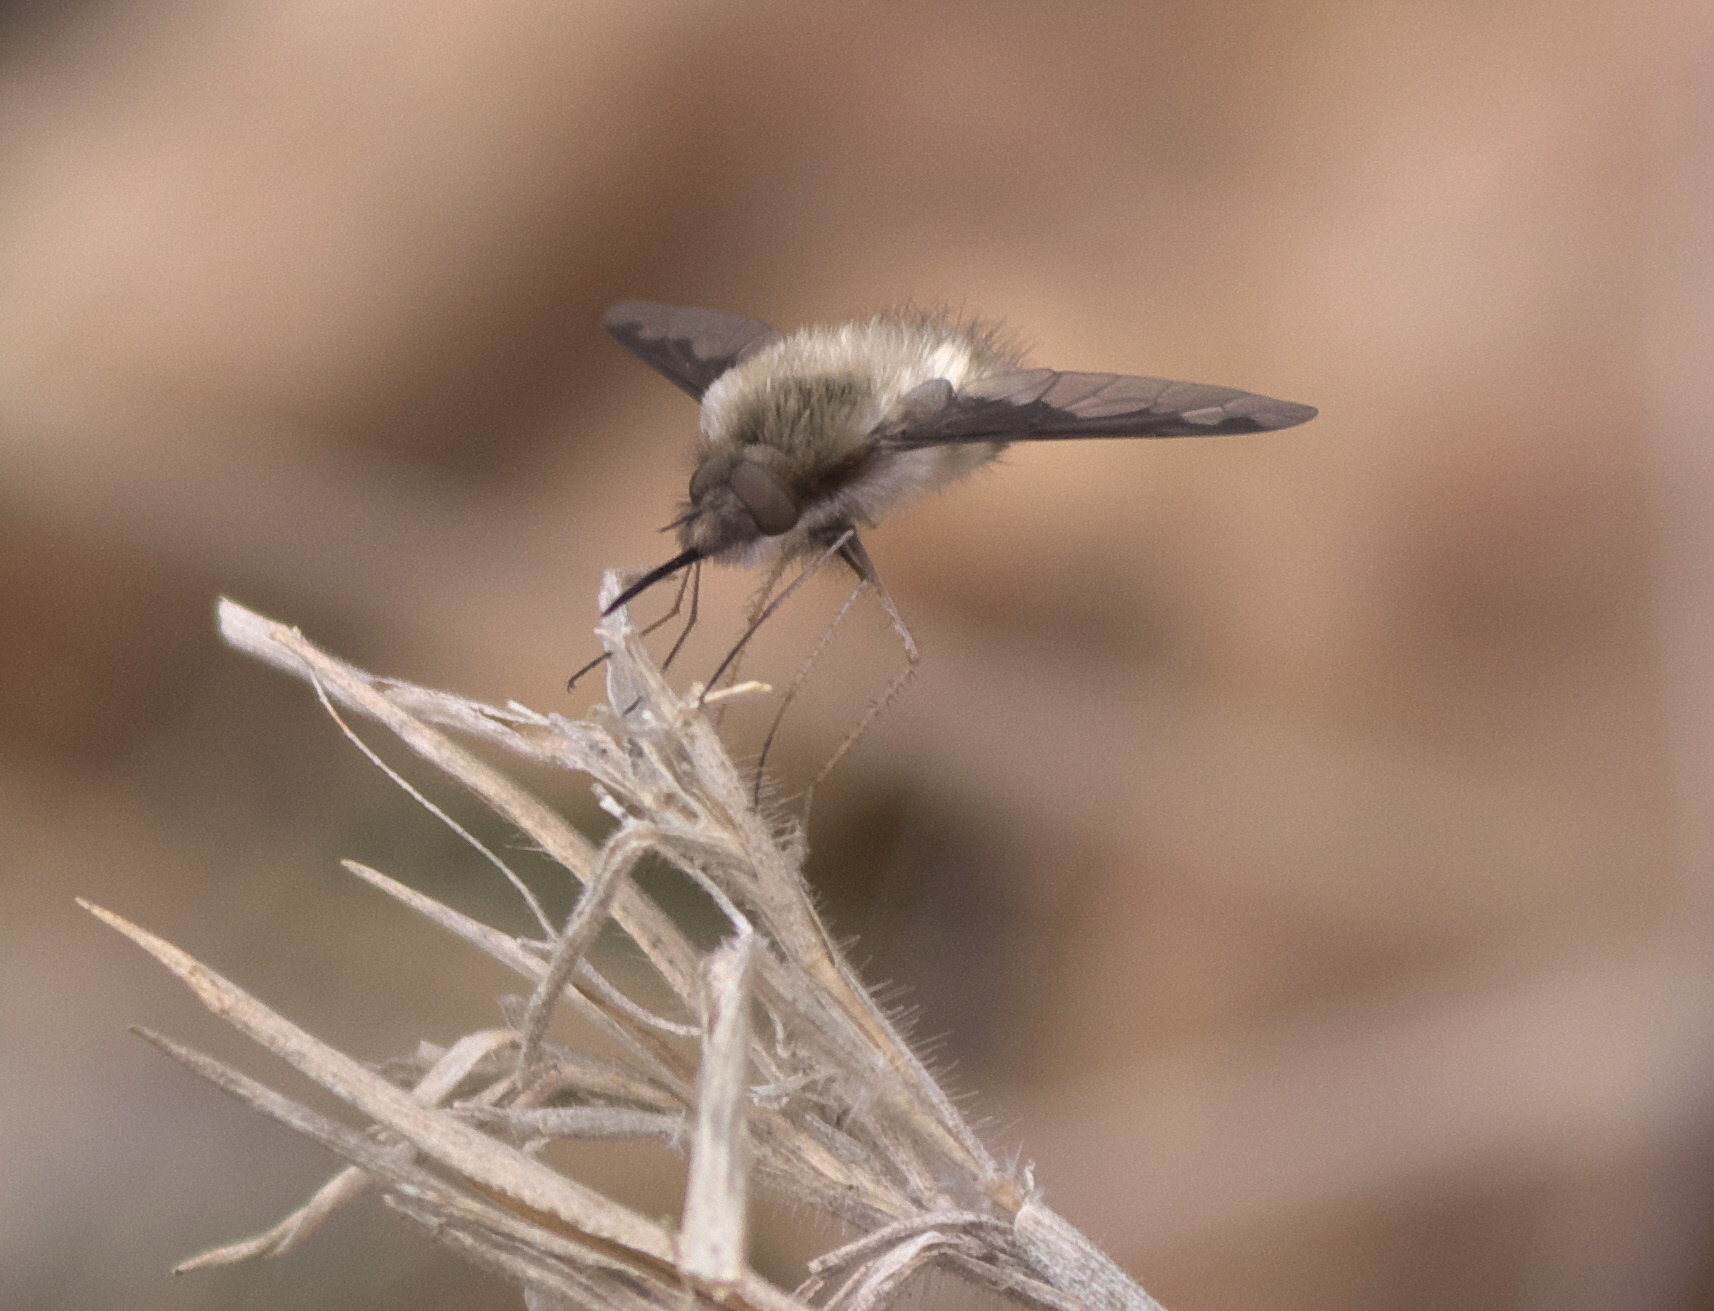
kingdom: Animalia
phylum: Arthropoda
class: Insecta
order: Diptera
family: Bombyliidae
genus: Bombylius
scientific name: Bombylius major
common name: Bee fly
